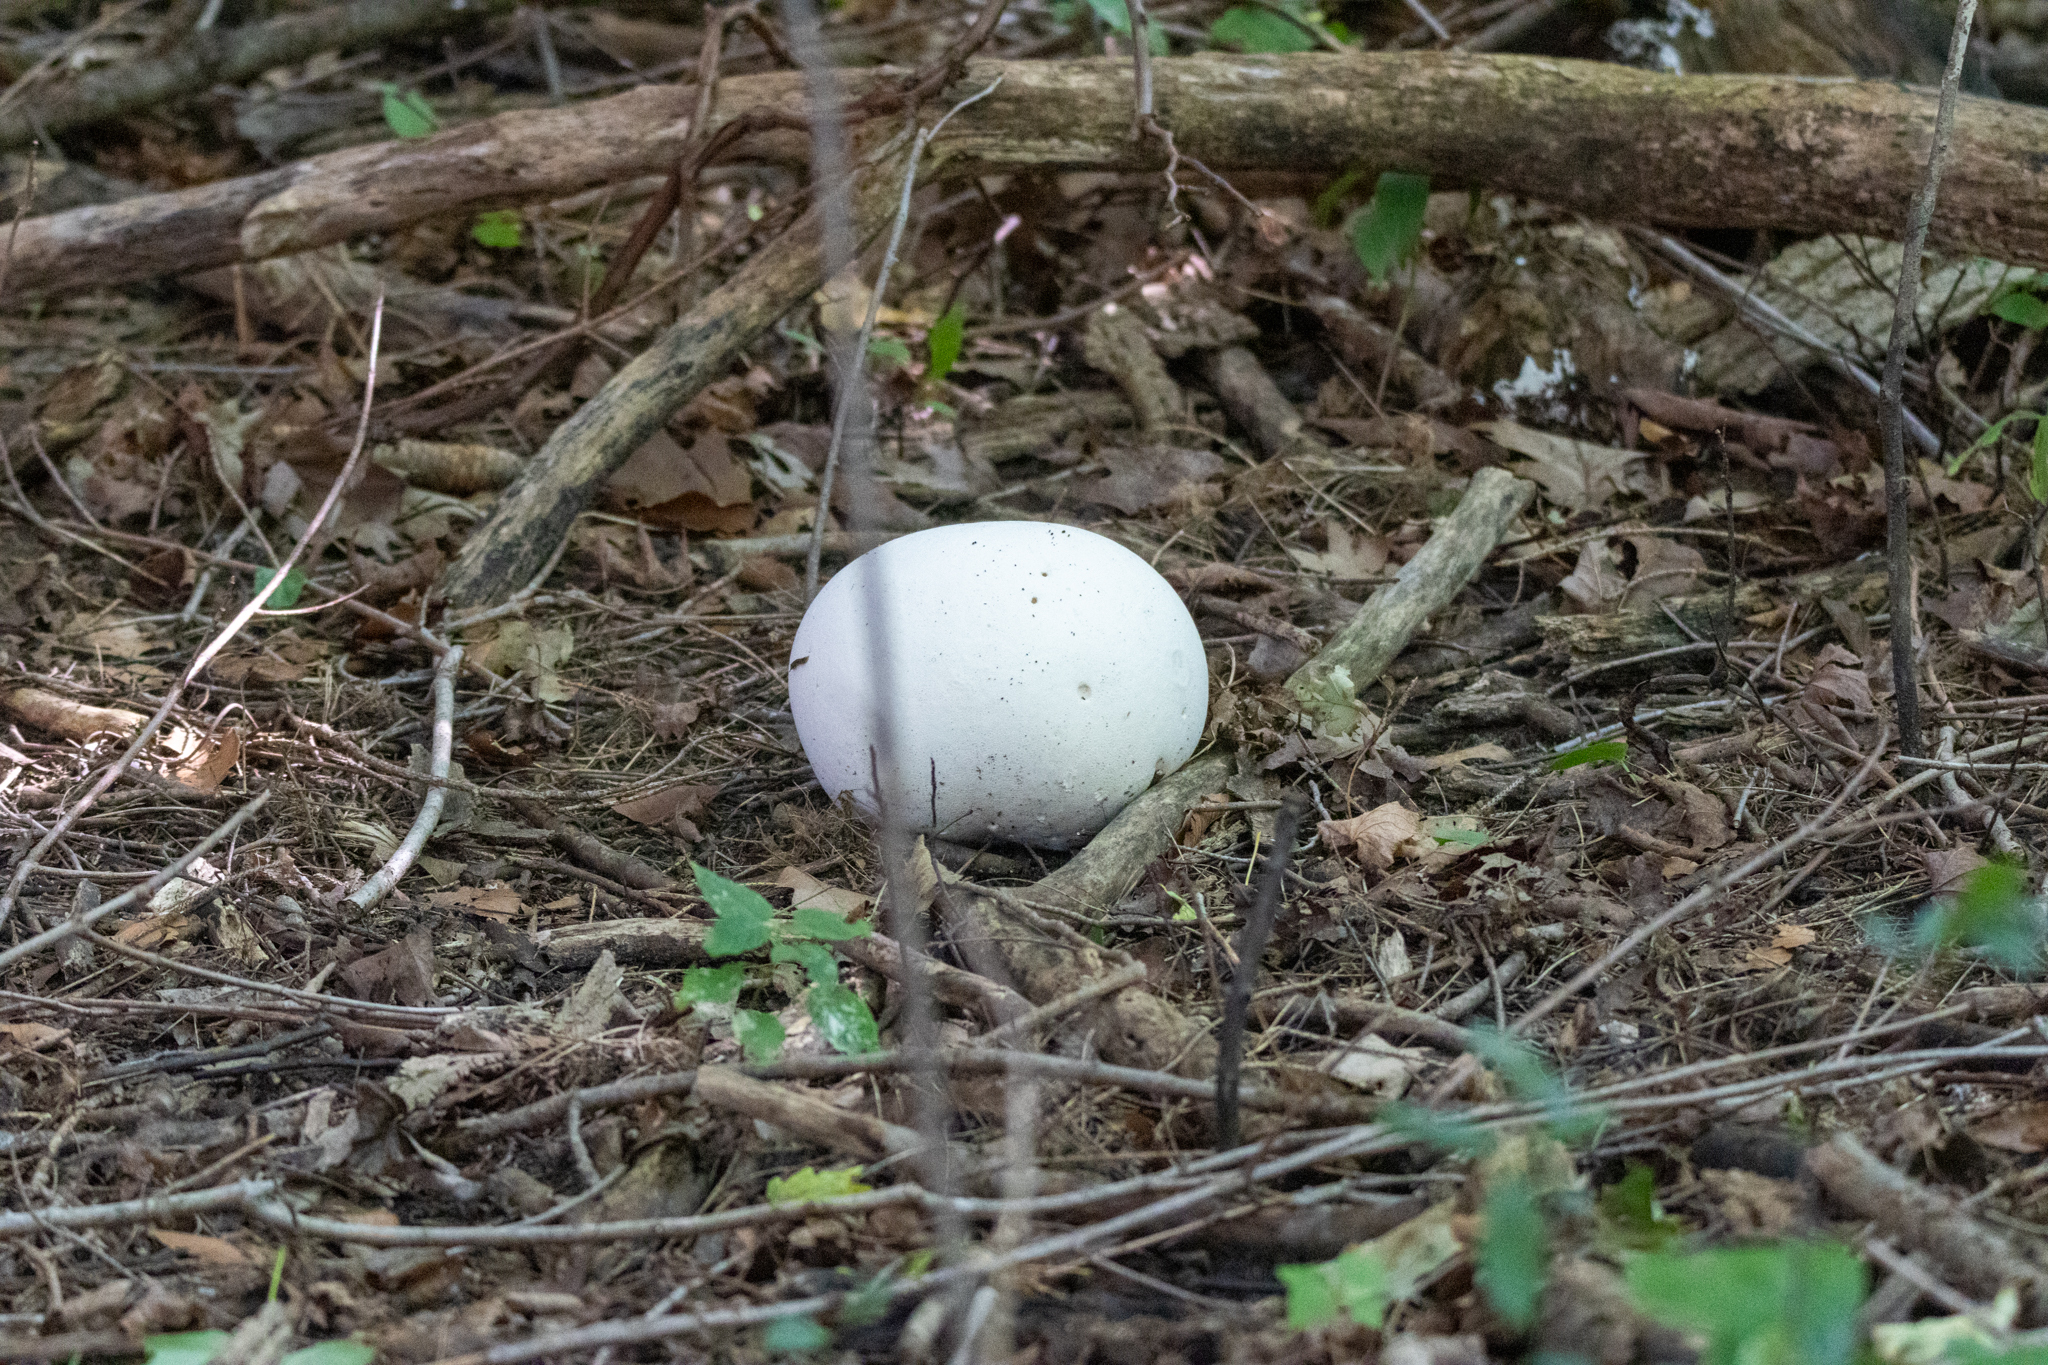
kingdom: Fungi
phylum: Basidiomycota
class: Agaricomycetes
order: Agaricales
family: Lycoperdaceae
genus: Calvatia
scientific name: Calvatia gigantea
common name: Giant puffball
